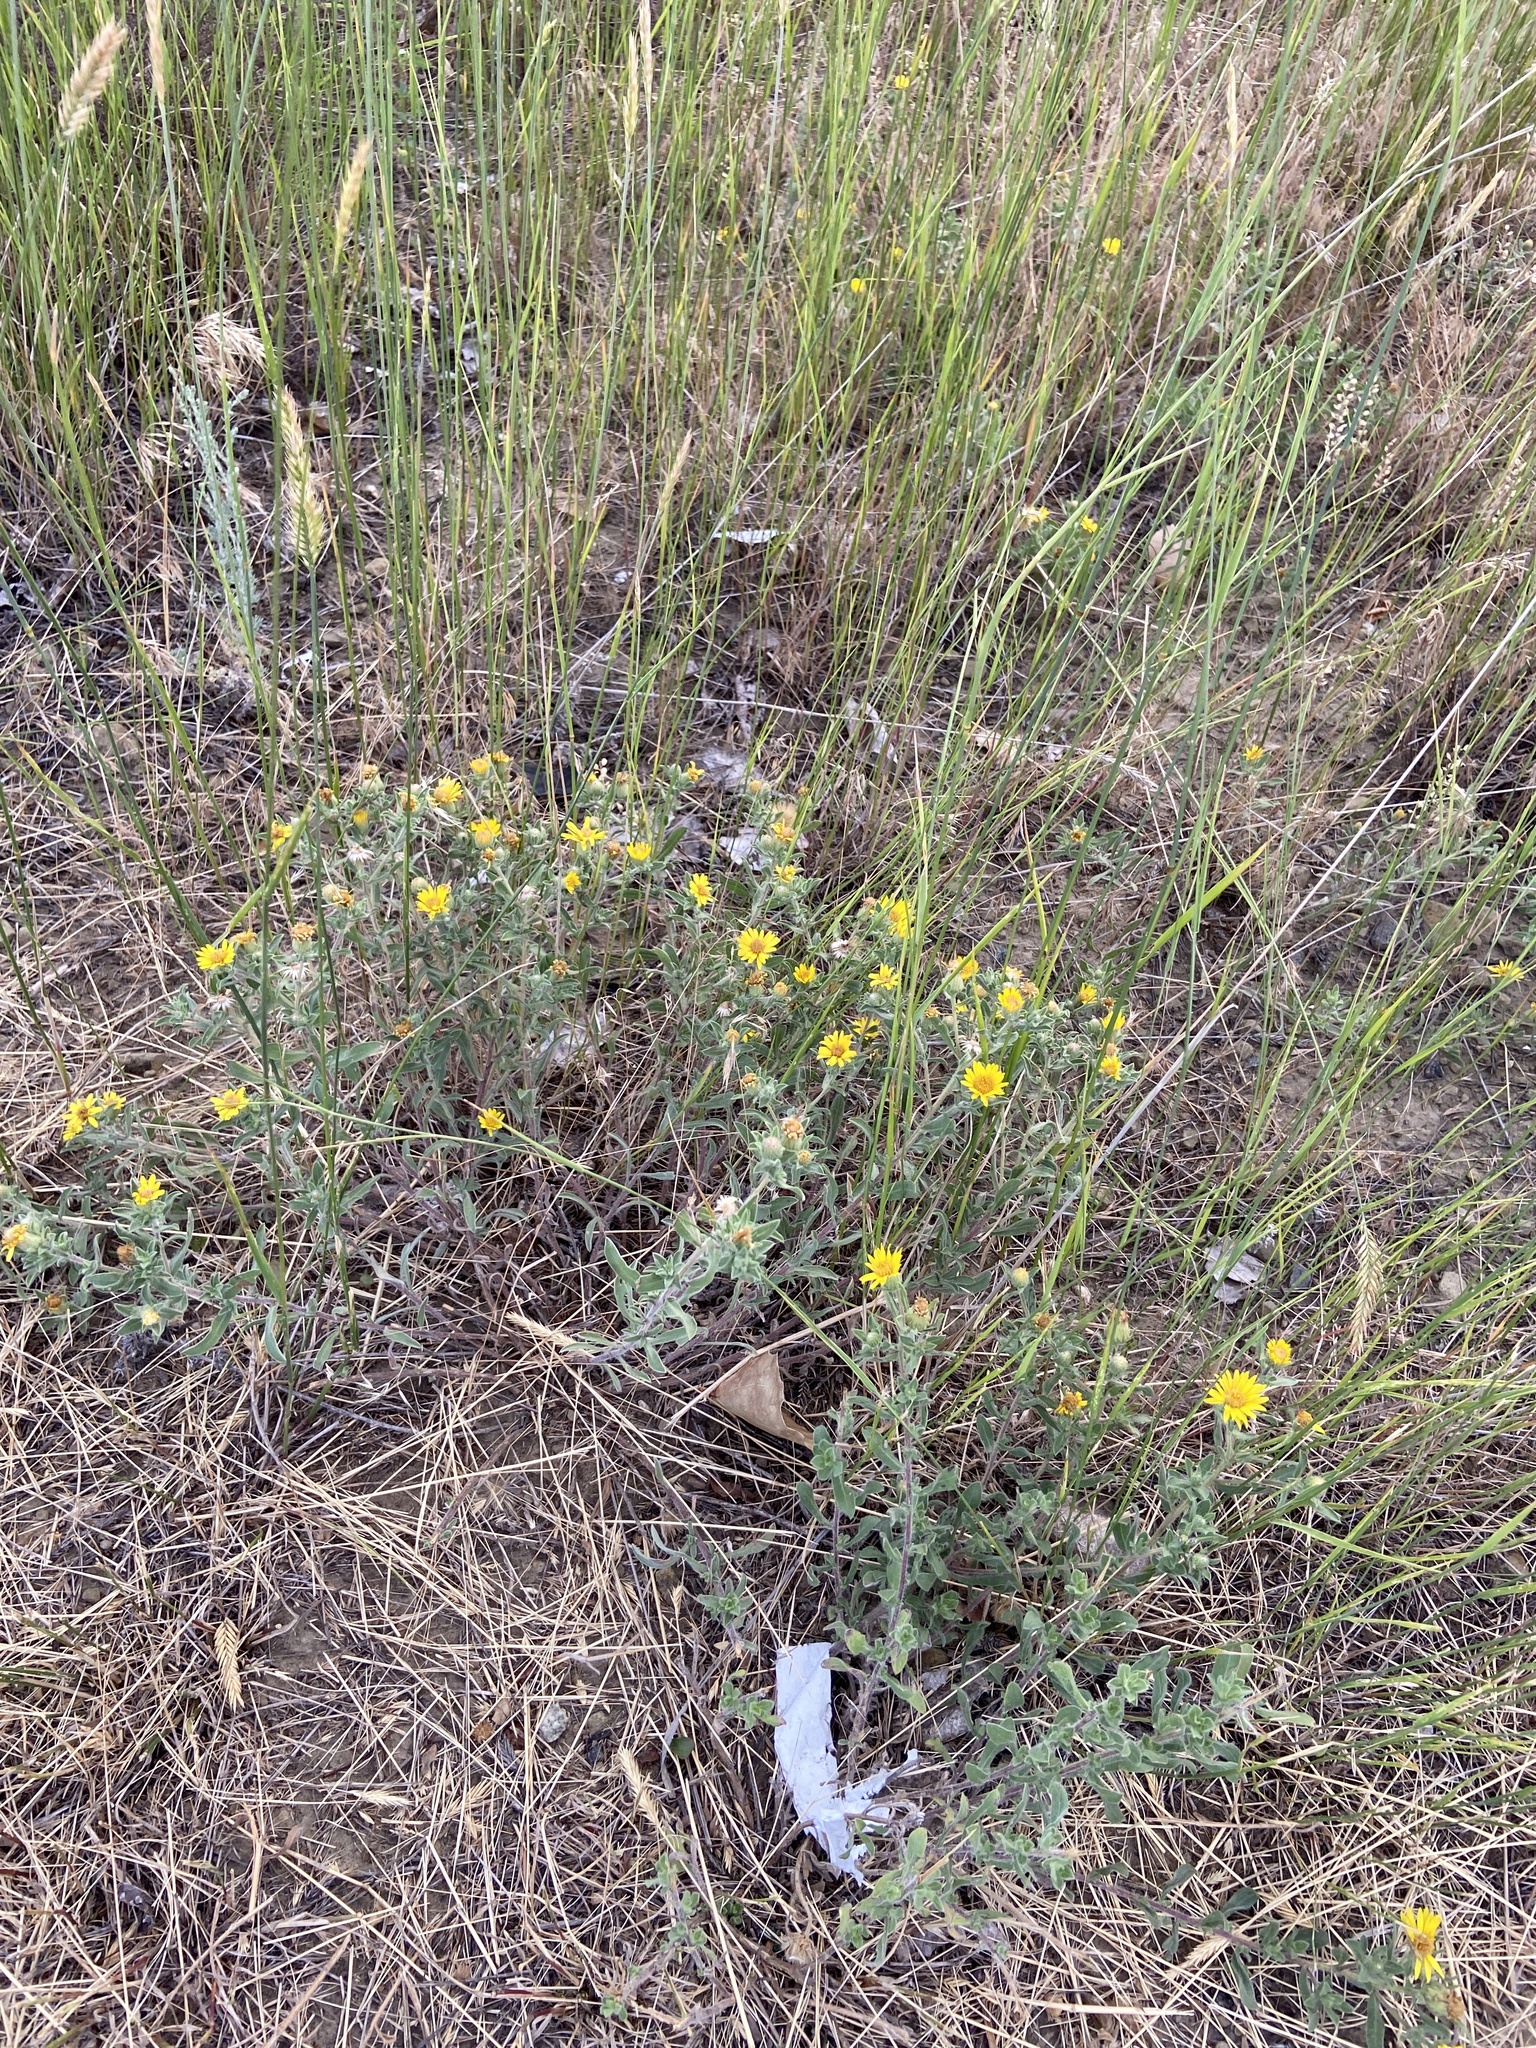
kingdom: Plantae
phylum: Tracheophyta
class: Magnoliopsida
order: Asterales
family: Asteraceae
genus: Heterotheca
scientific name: Heterotheca villosa
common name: Hairy false goldenaster
